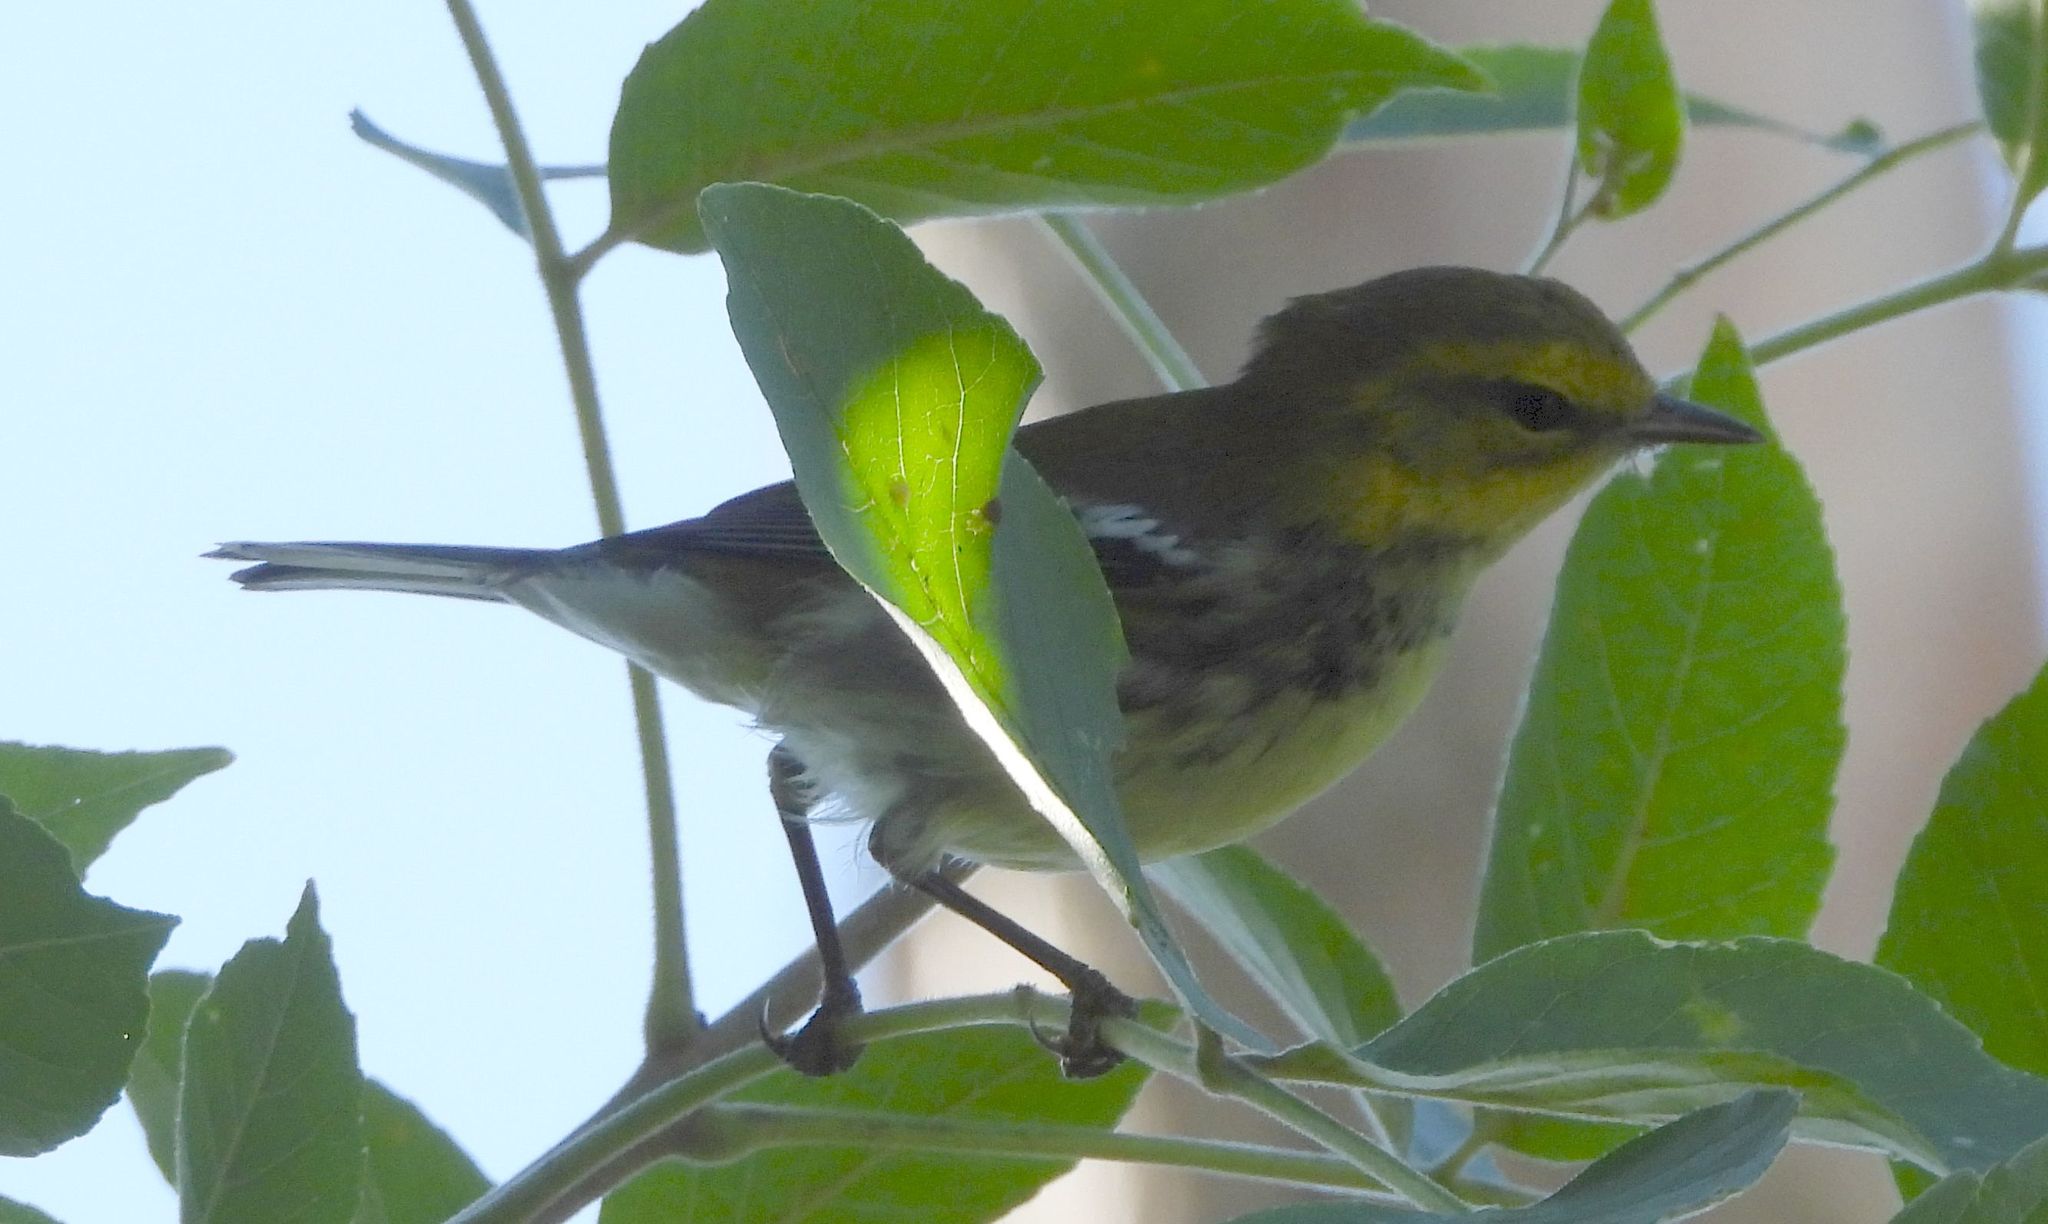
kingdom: Animalia
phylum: Chordata
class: Aves
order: Passeriformes
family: Parulidae
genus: Setophaga
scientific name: Setophaga virens
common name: Black-throated green warbler
